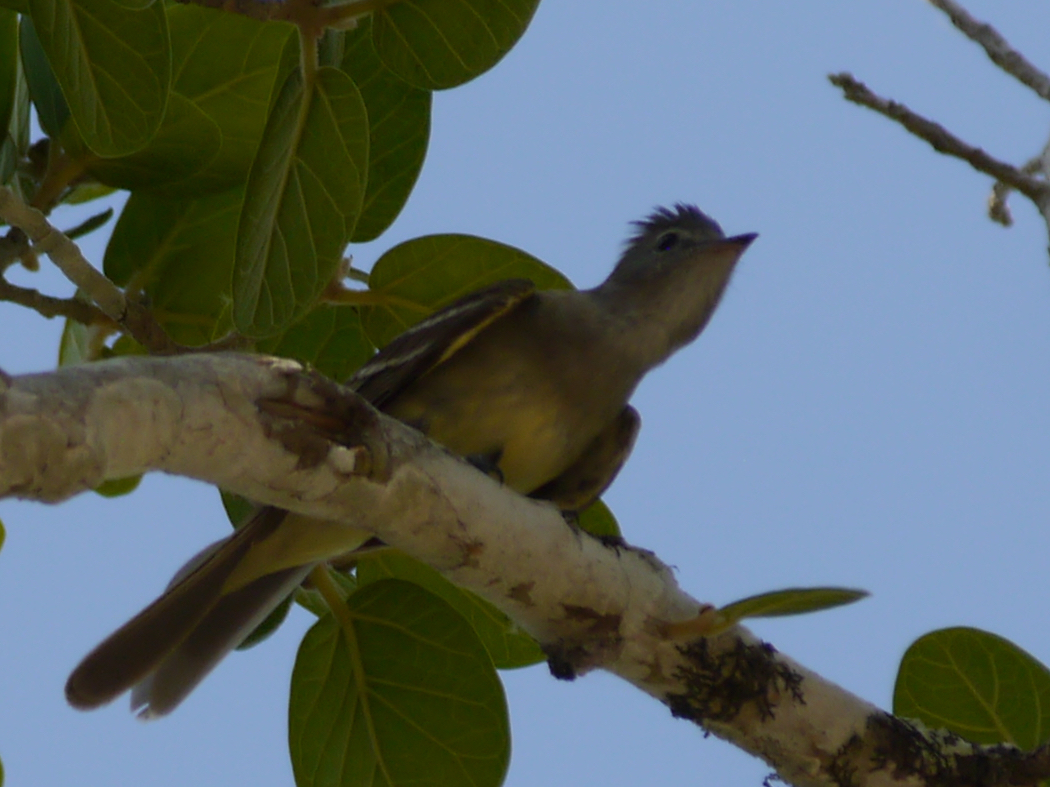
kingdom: Animalia
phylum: Chordata
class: Aves
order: Passeriformes
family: Tyrannidae
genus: Elaenia
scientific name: Elaenia flavogaster
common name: Yellow-bellied elaenia
